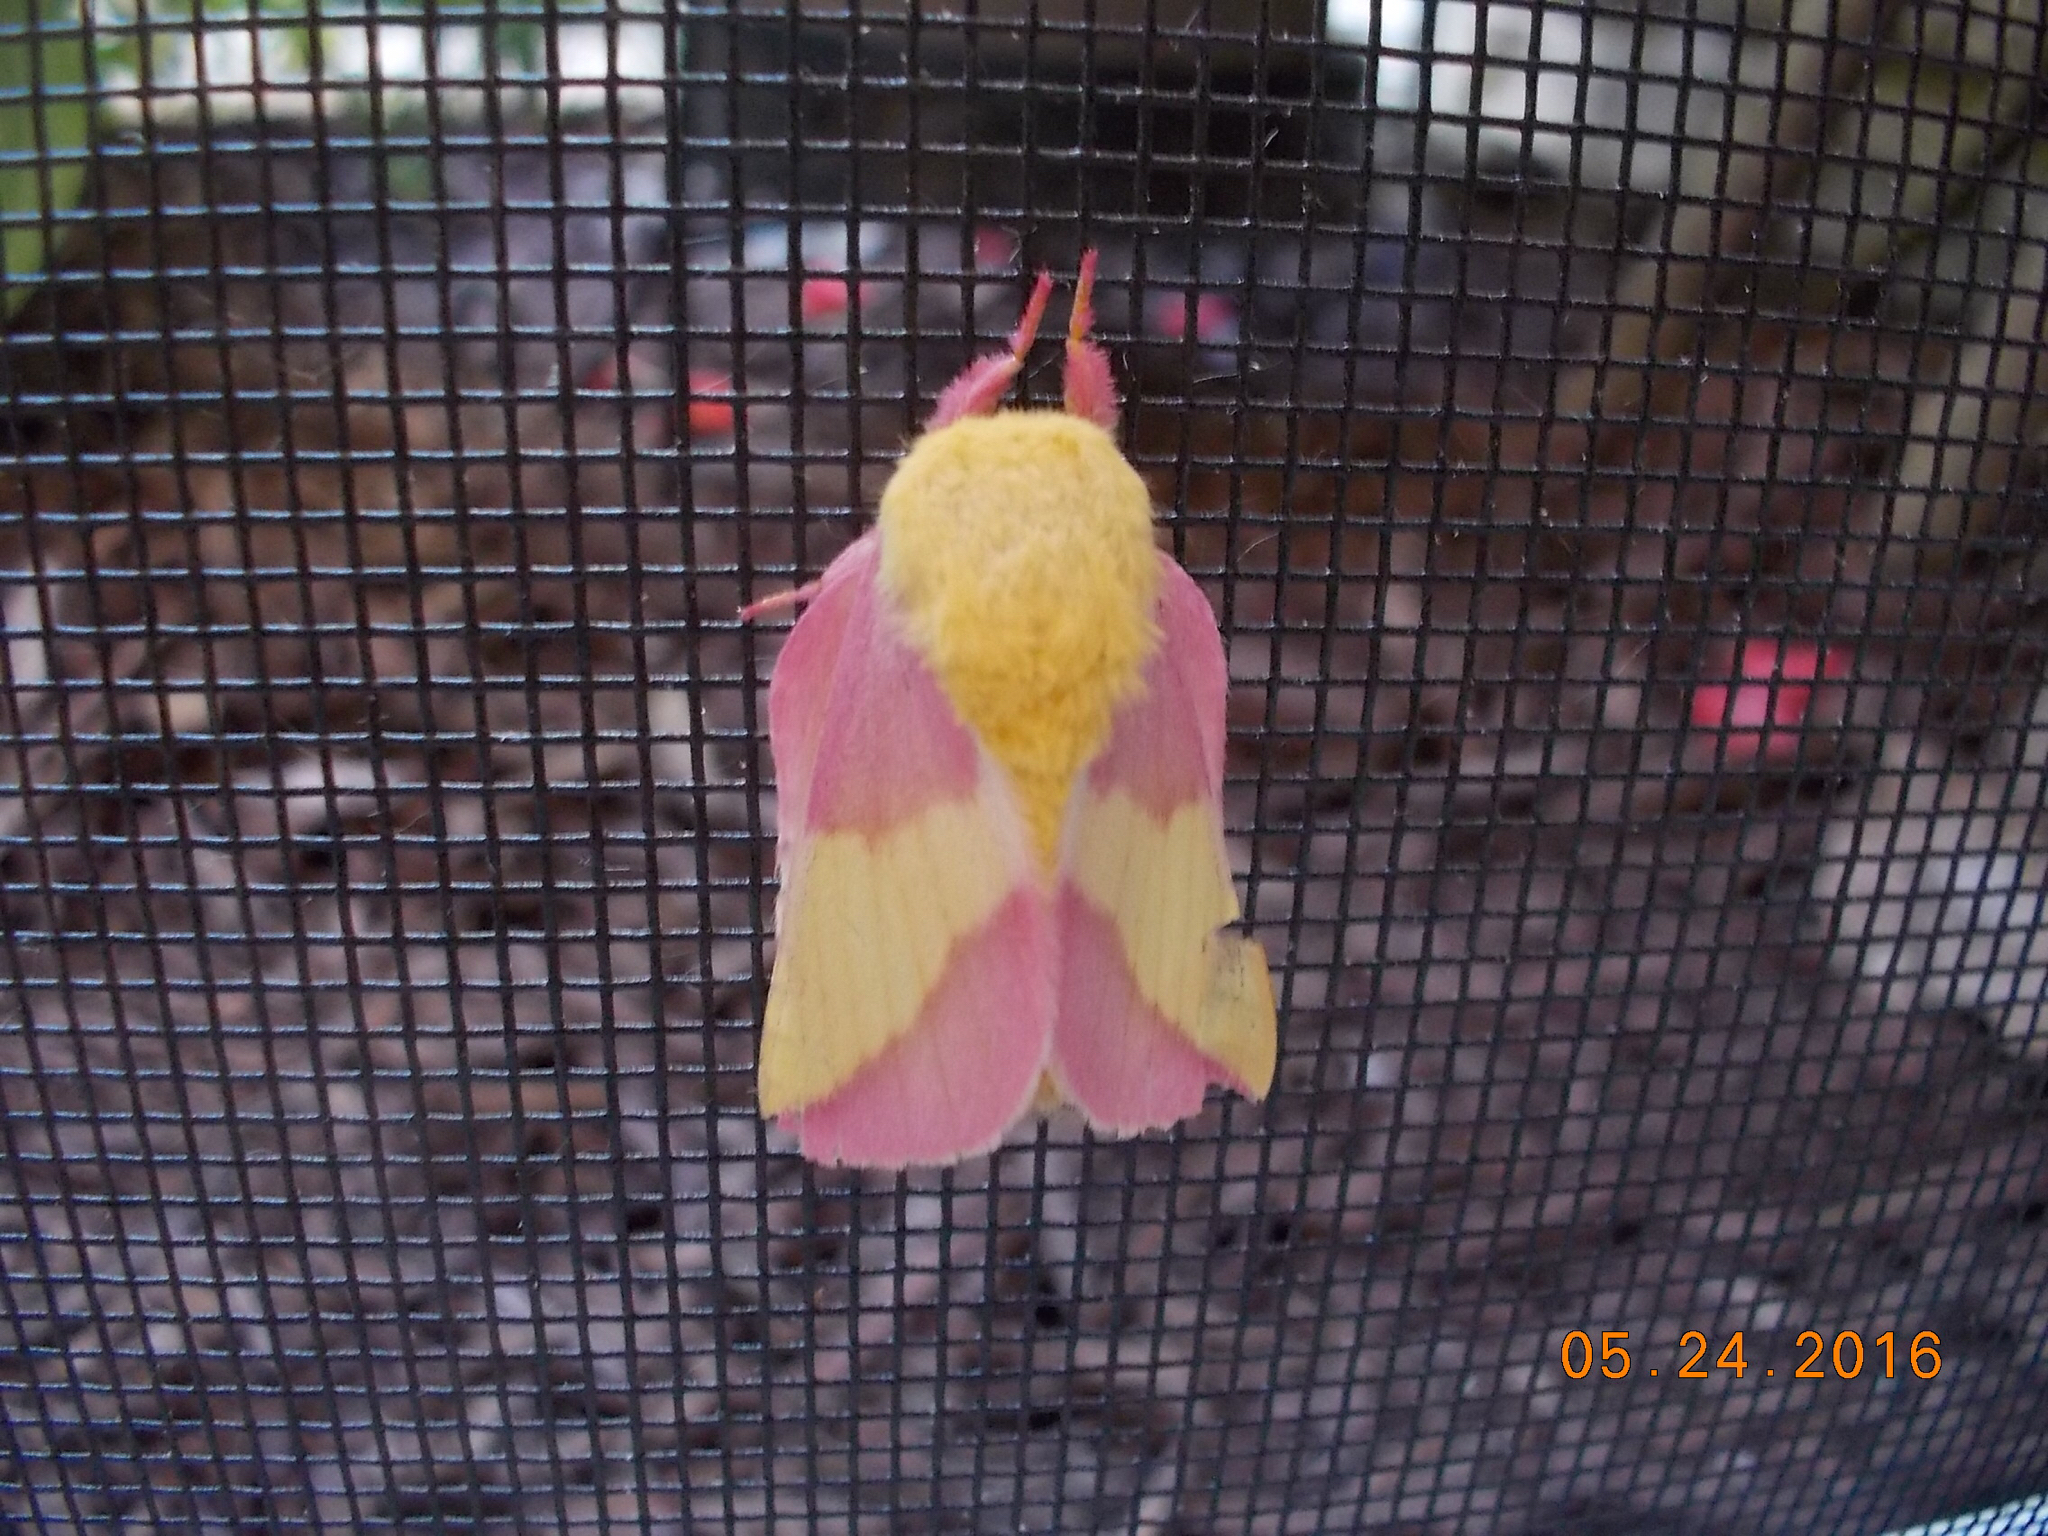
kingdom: Animalia
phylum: Arthropoda
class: Insecta
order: Lepidoptera
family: Saturniidae
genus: Dryocampa
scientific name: Dryocampa rubicunda
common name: Rosy maple moth
